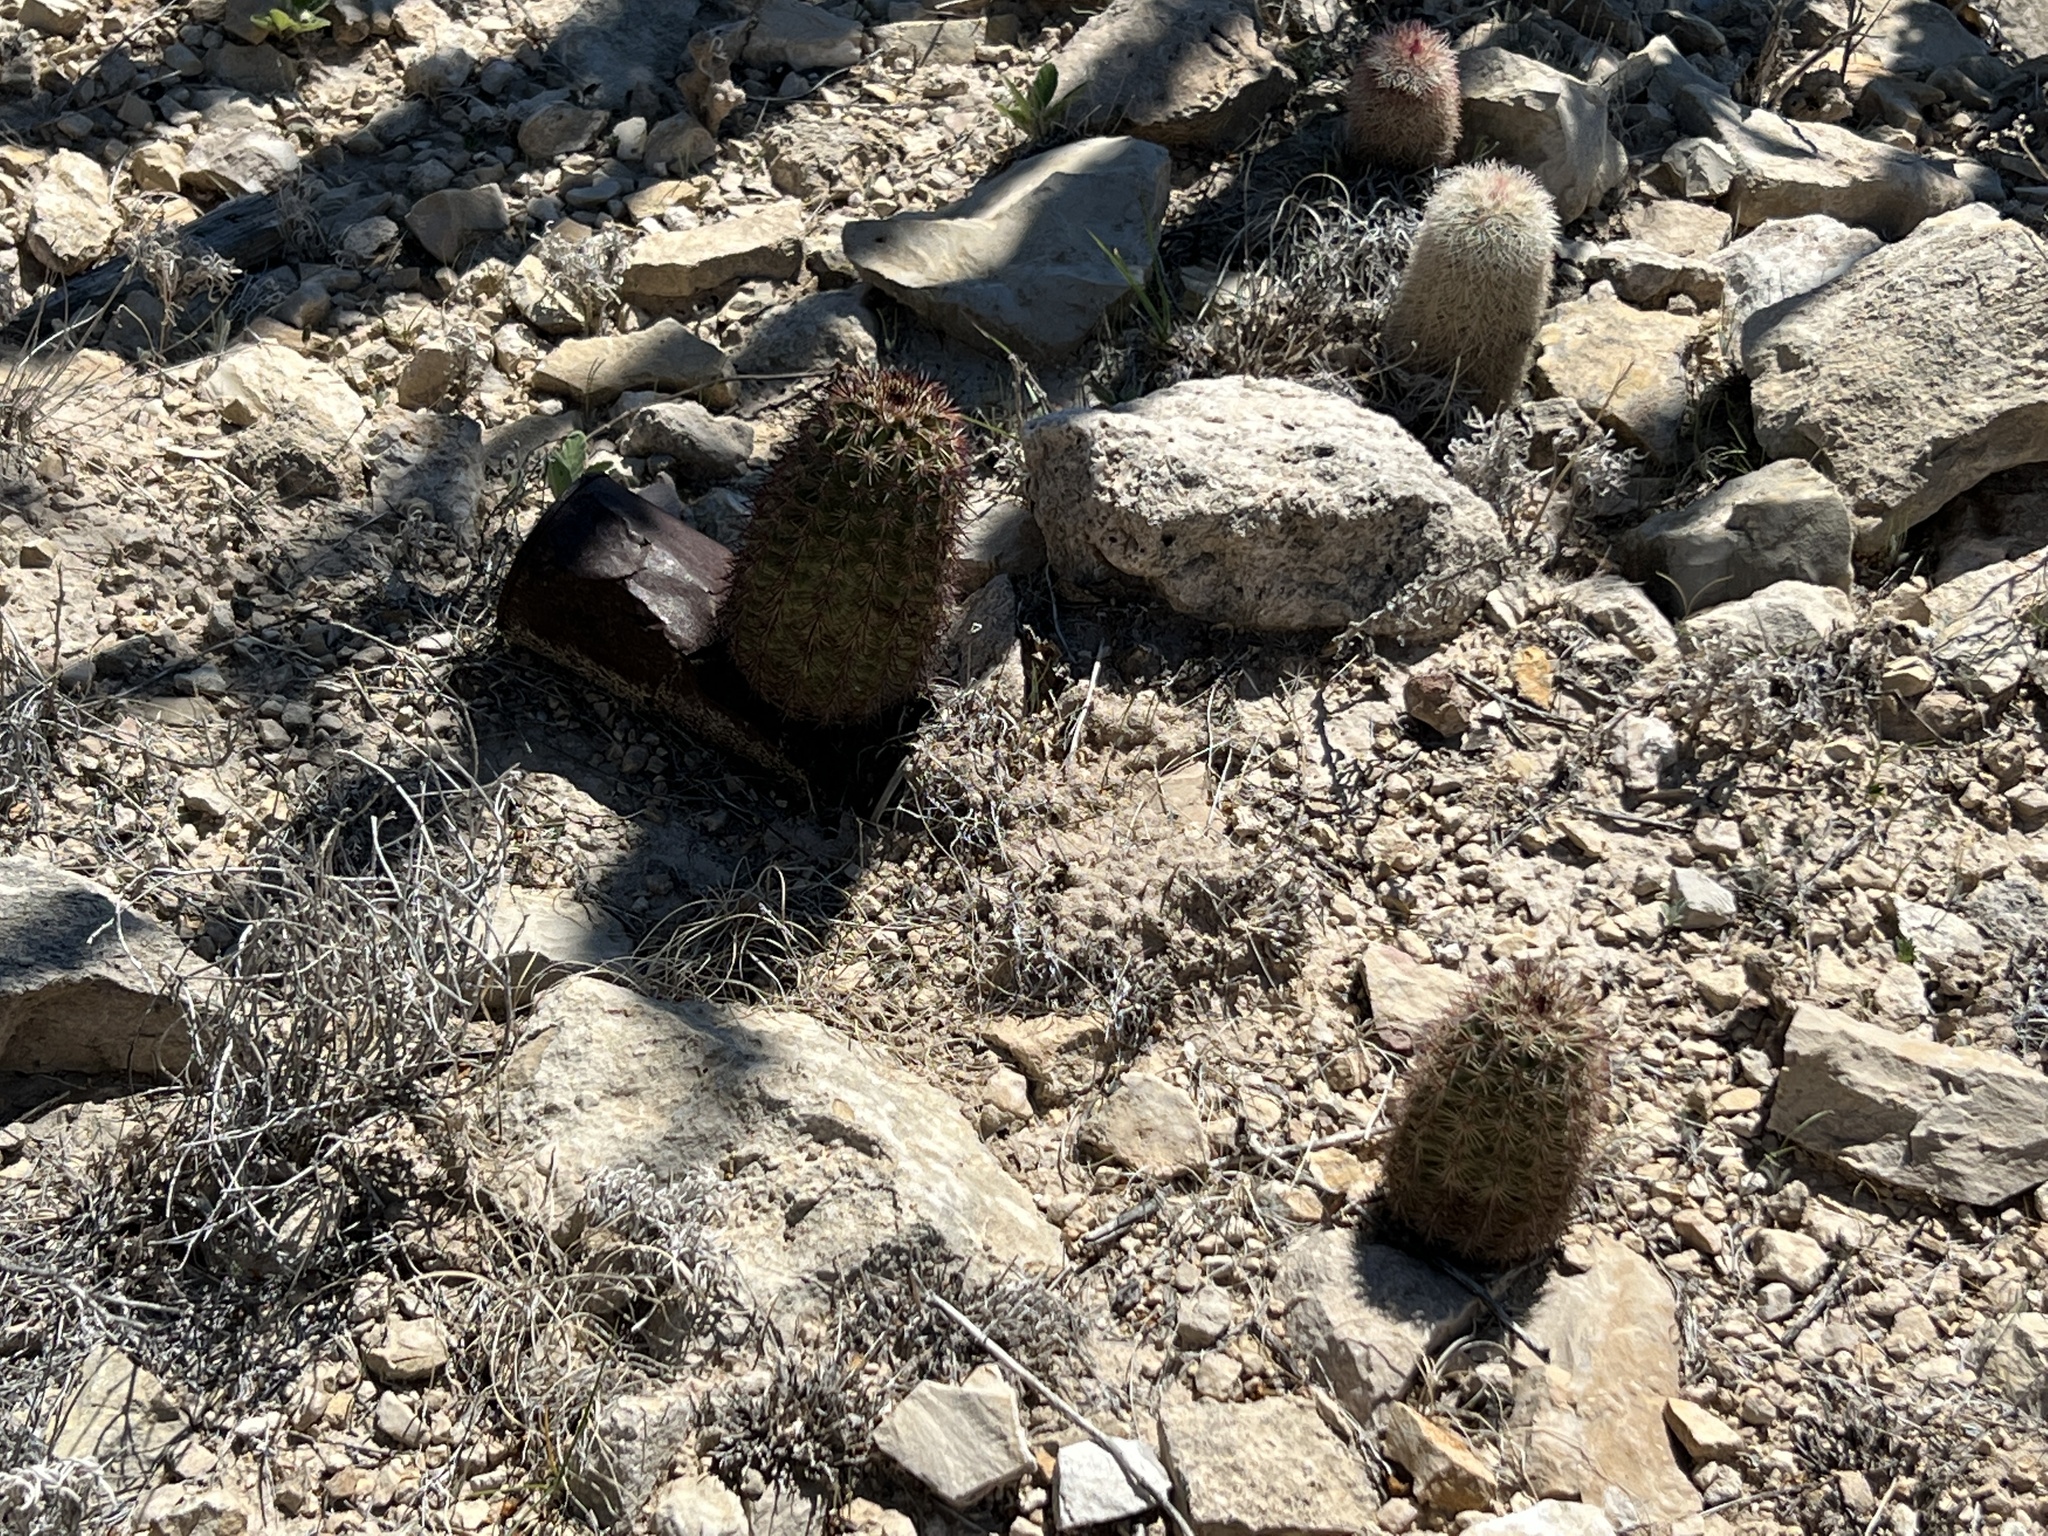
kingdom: Plantae
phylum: Tracheophyta
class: Magnoliopsida
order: Caryophyllales
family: Cactaceae
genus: Echinocereus
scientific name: Echinocereus roetteri
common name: Lloyd's hedgehog cactus
